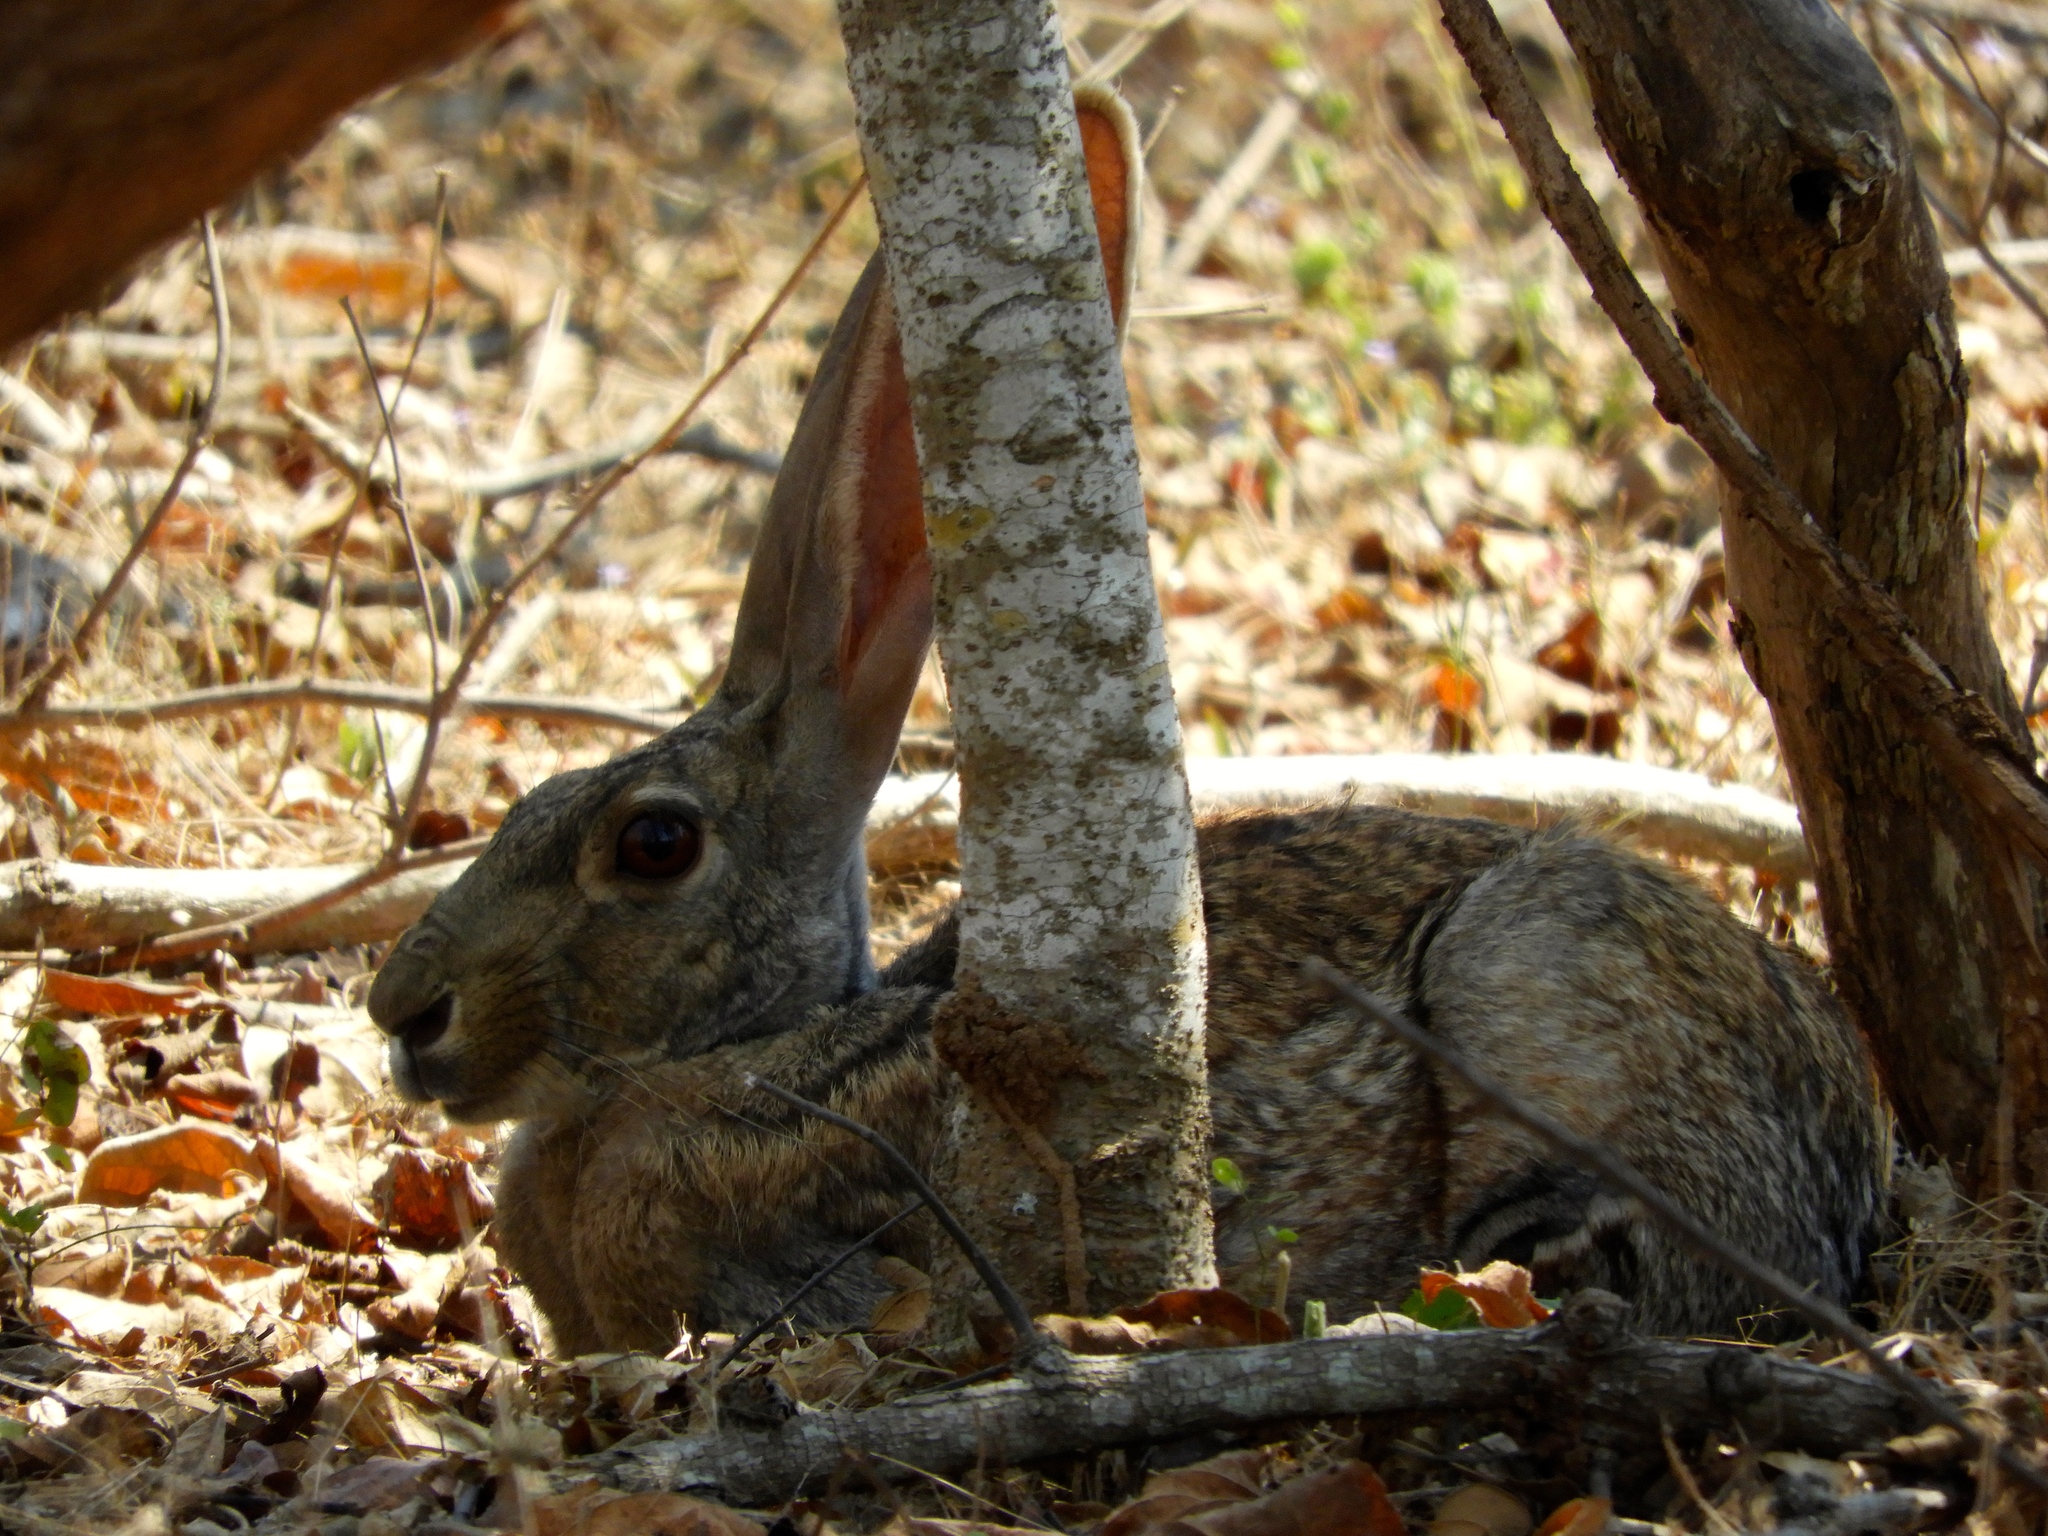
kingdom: Animalia
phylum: Chordata
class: Mammalia
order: Lagomorpha
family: Leporidae
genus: Lepus
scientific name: Lepus alleni
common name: Antelope jackrabbit
